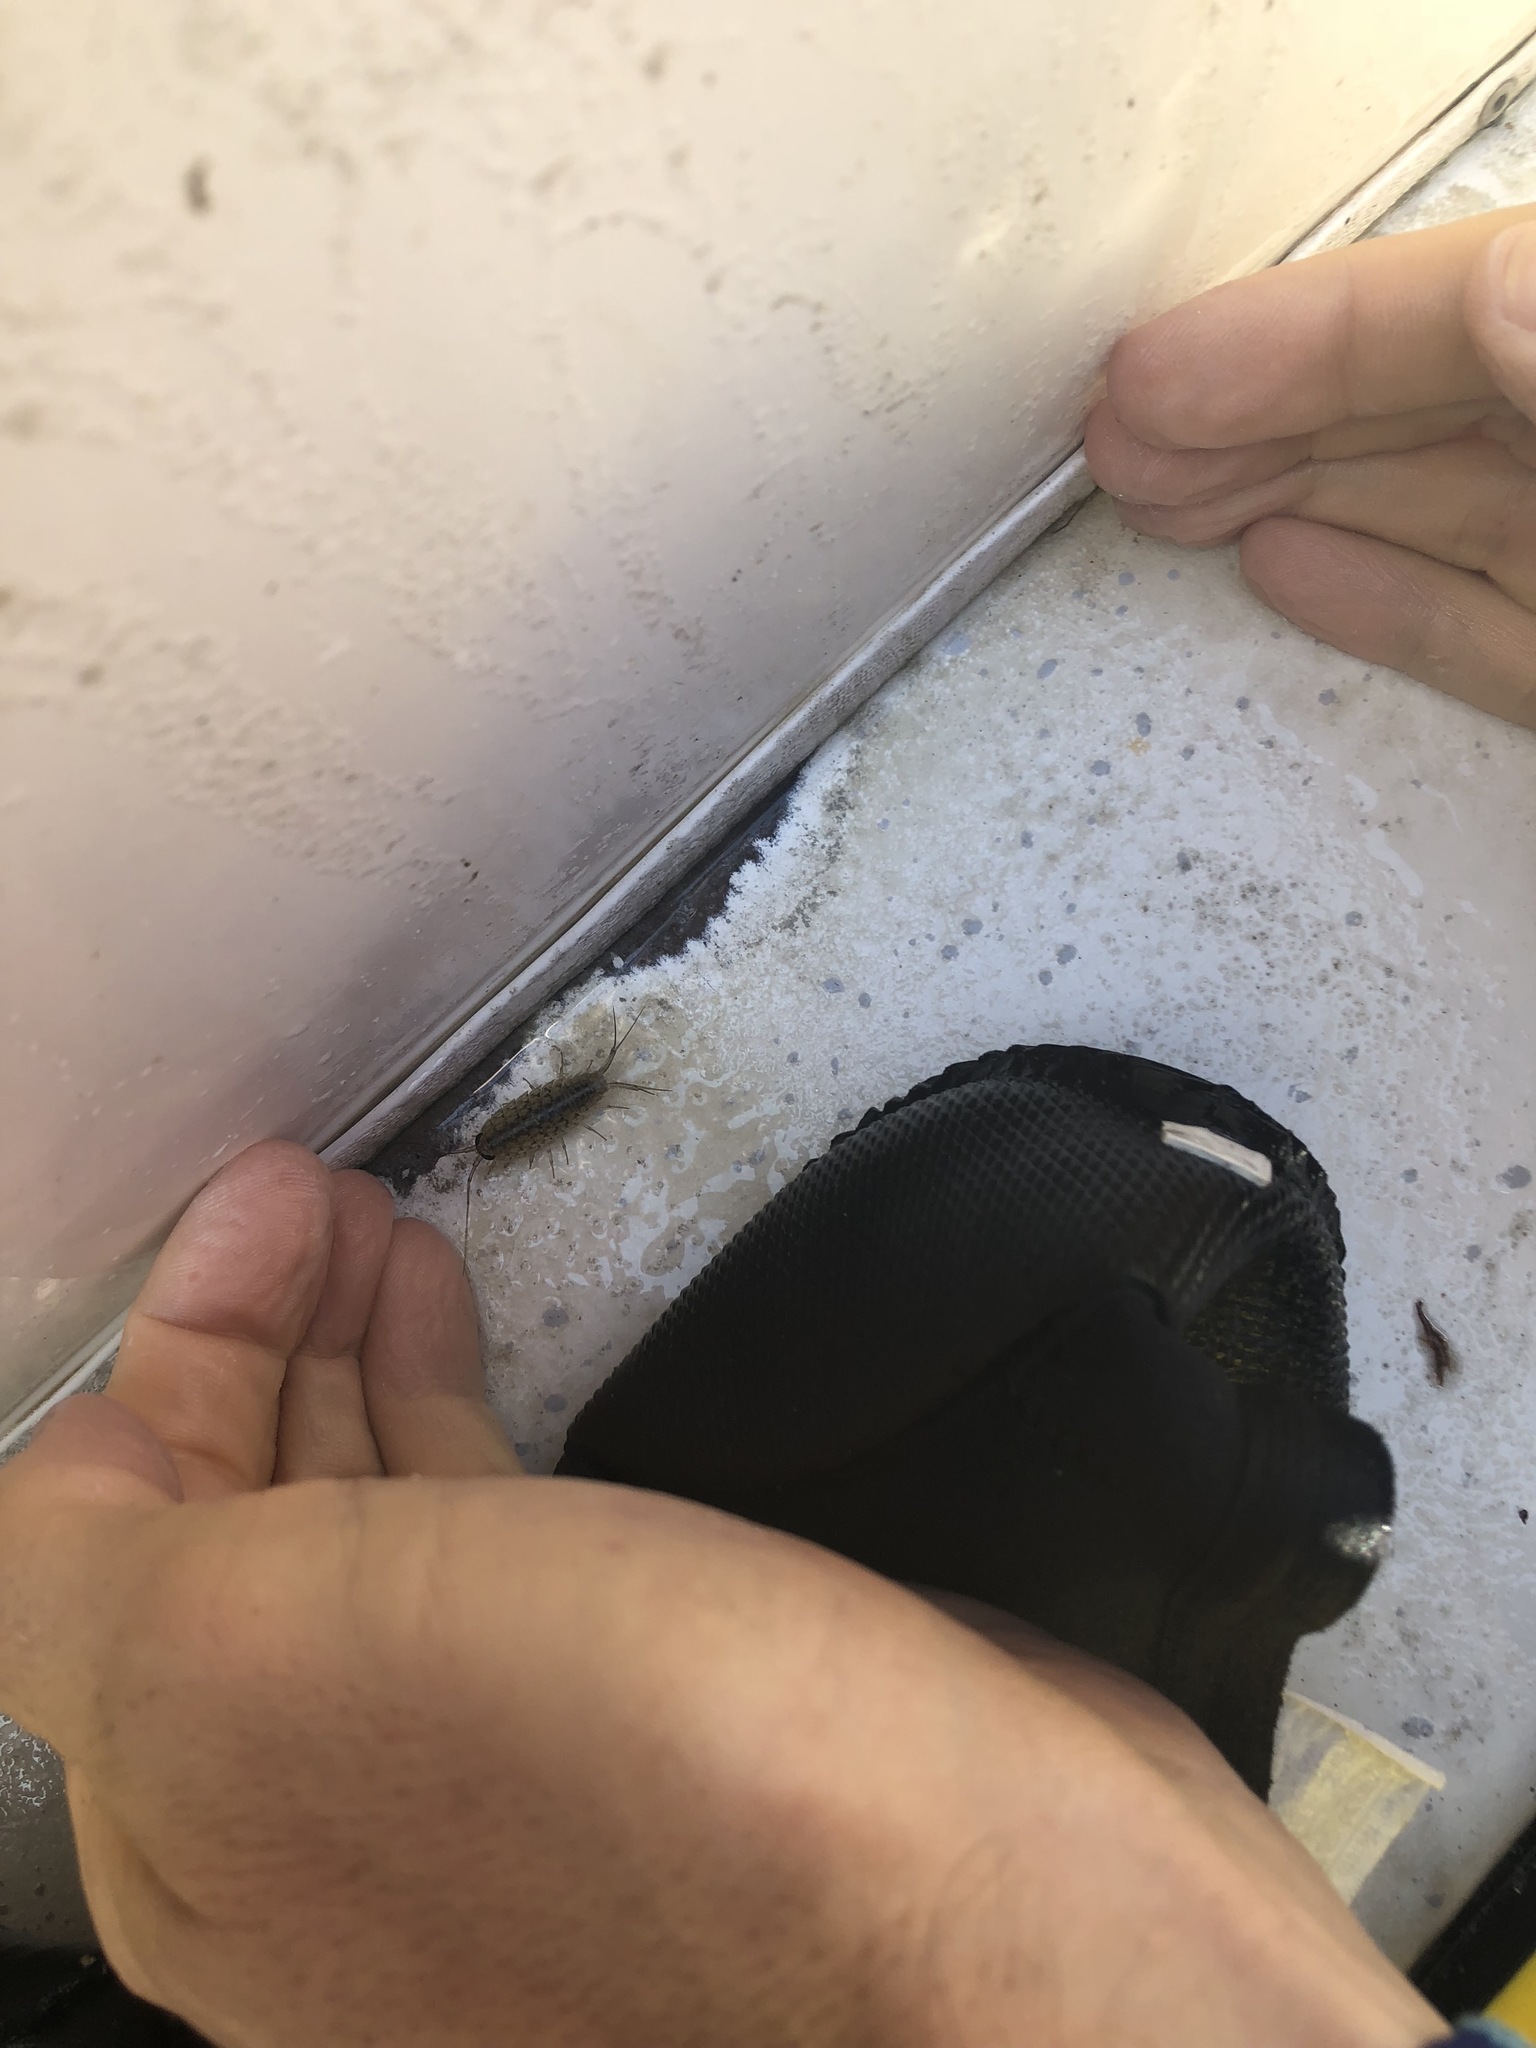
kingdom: Animalia
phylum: Arthropoda
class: Malacostraca
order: Isopoda
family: Ligiidae
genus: Ligia
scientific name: Ligia exotica
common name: Wharf roach
